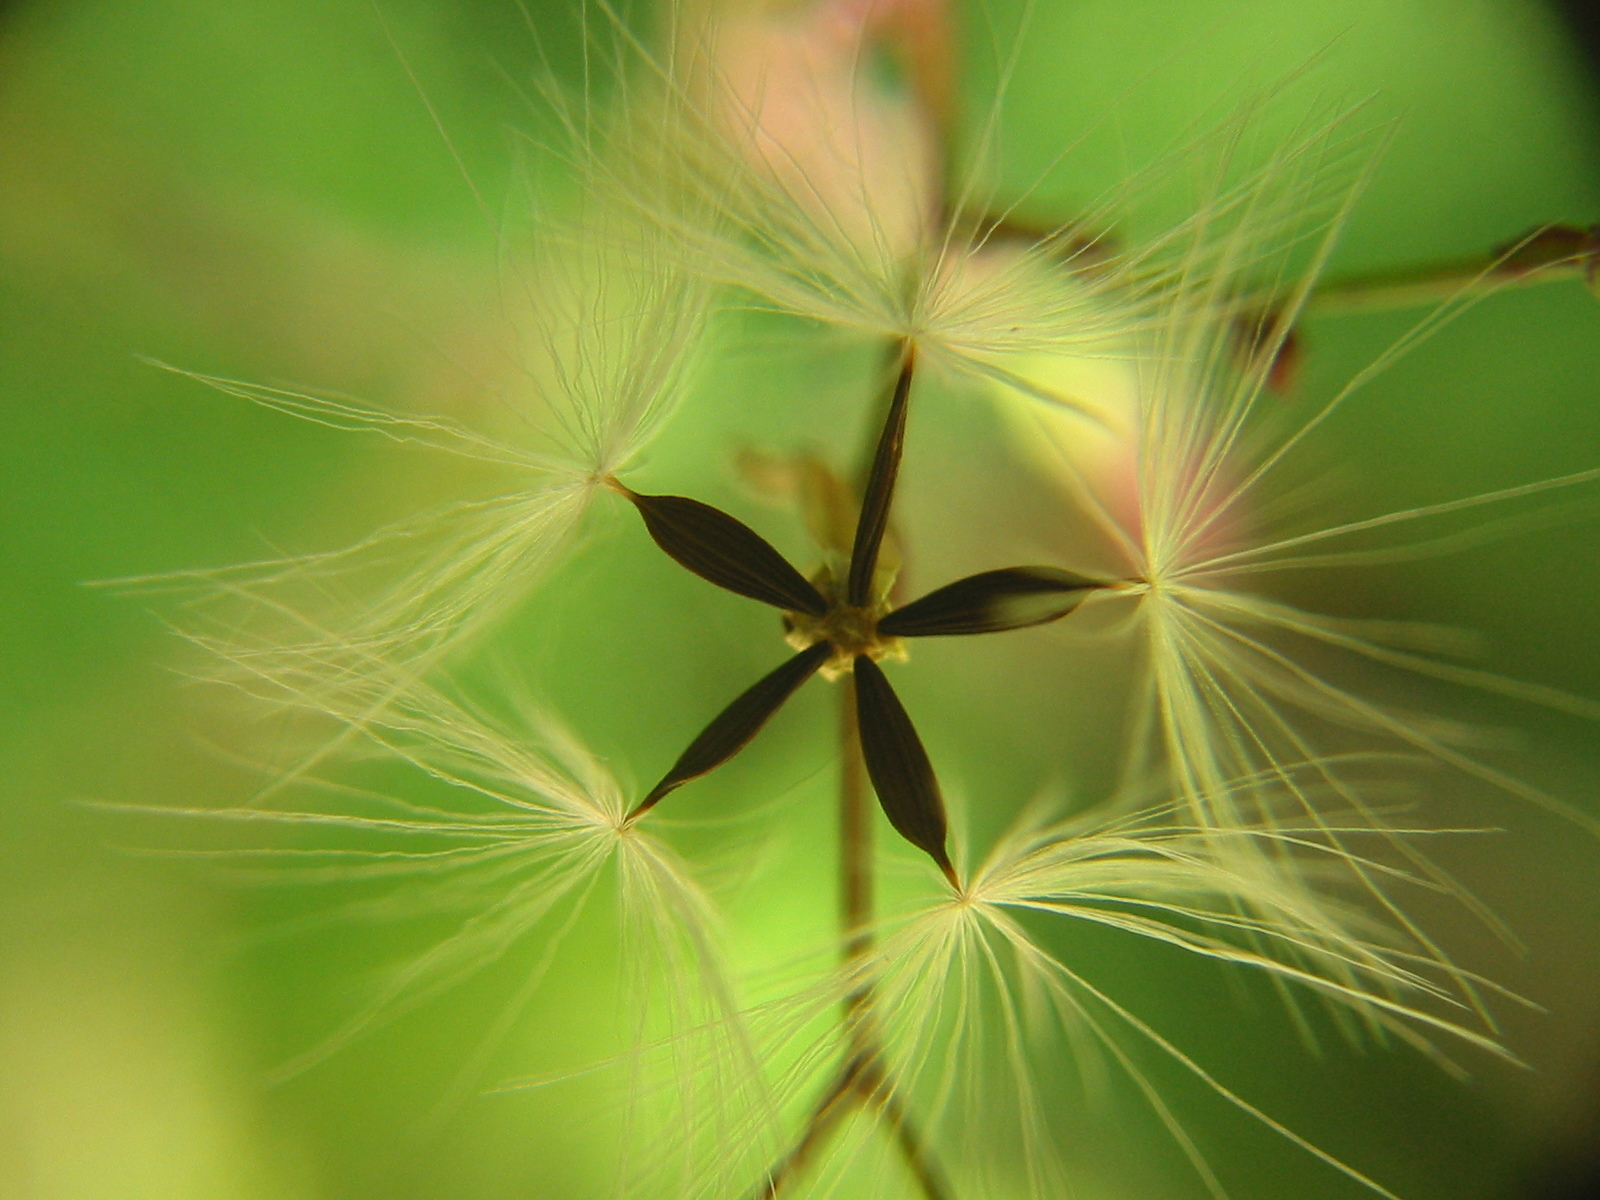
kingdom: Plantae
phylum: Tracheophyta
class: Magnoliopsida
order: Asterales
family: Asteraceae
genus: Mycelis
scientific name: Mycelis muralis
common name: Wall lettuce
